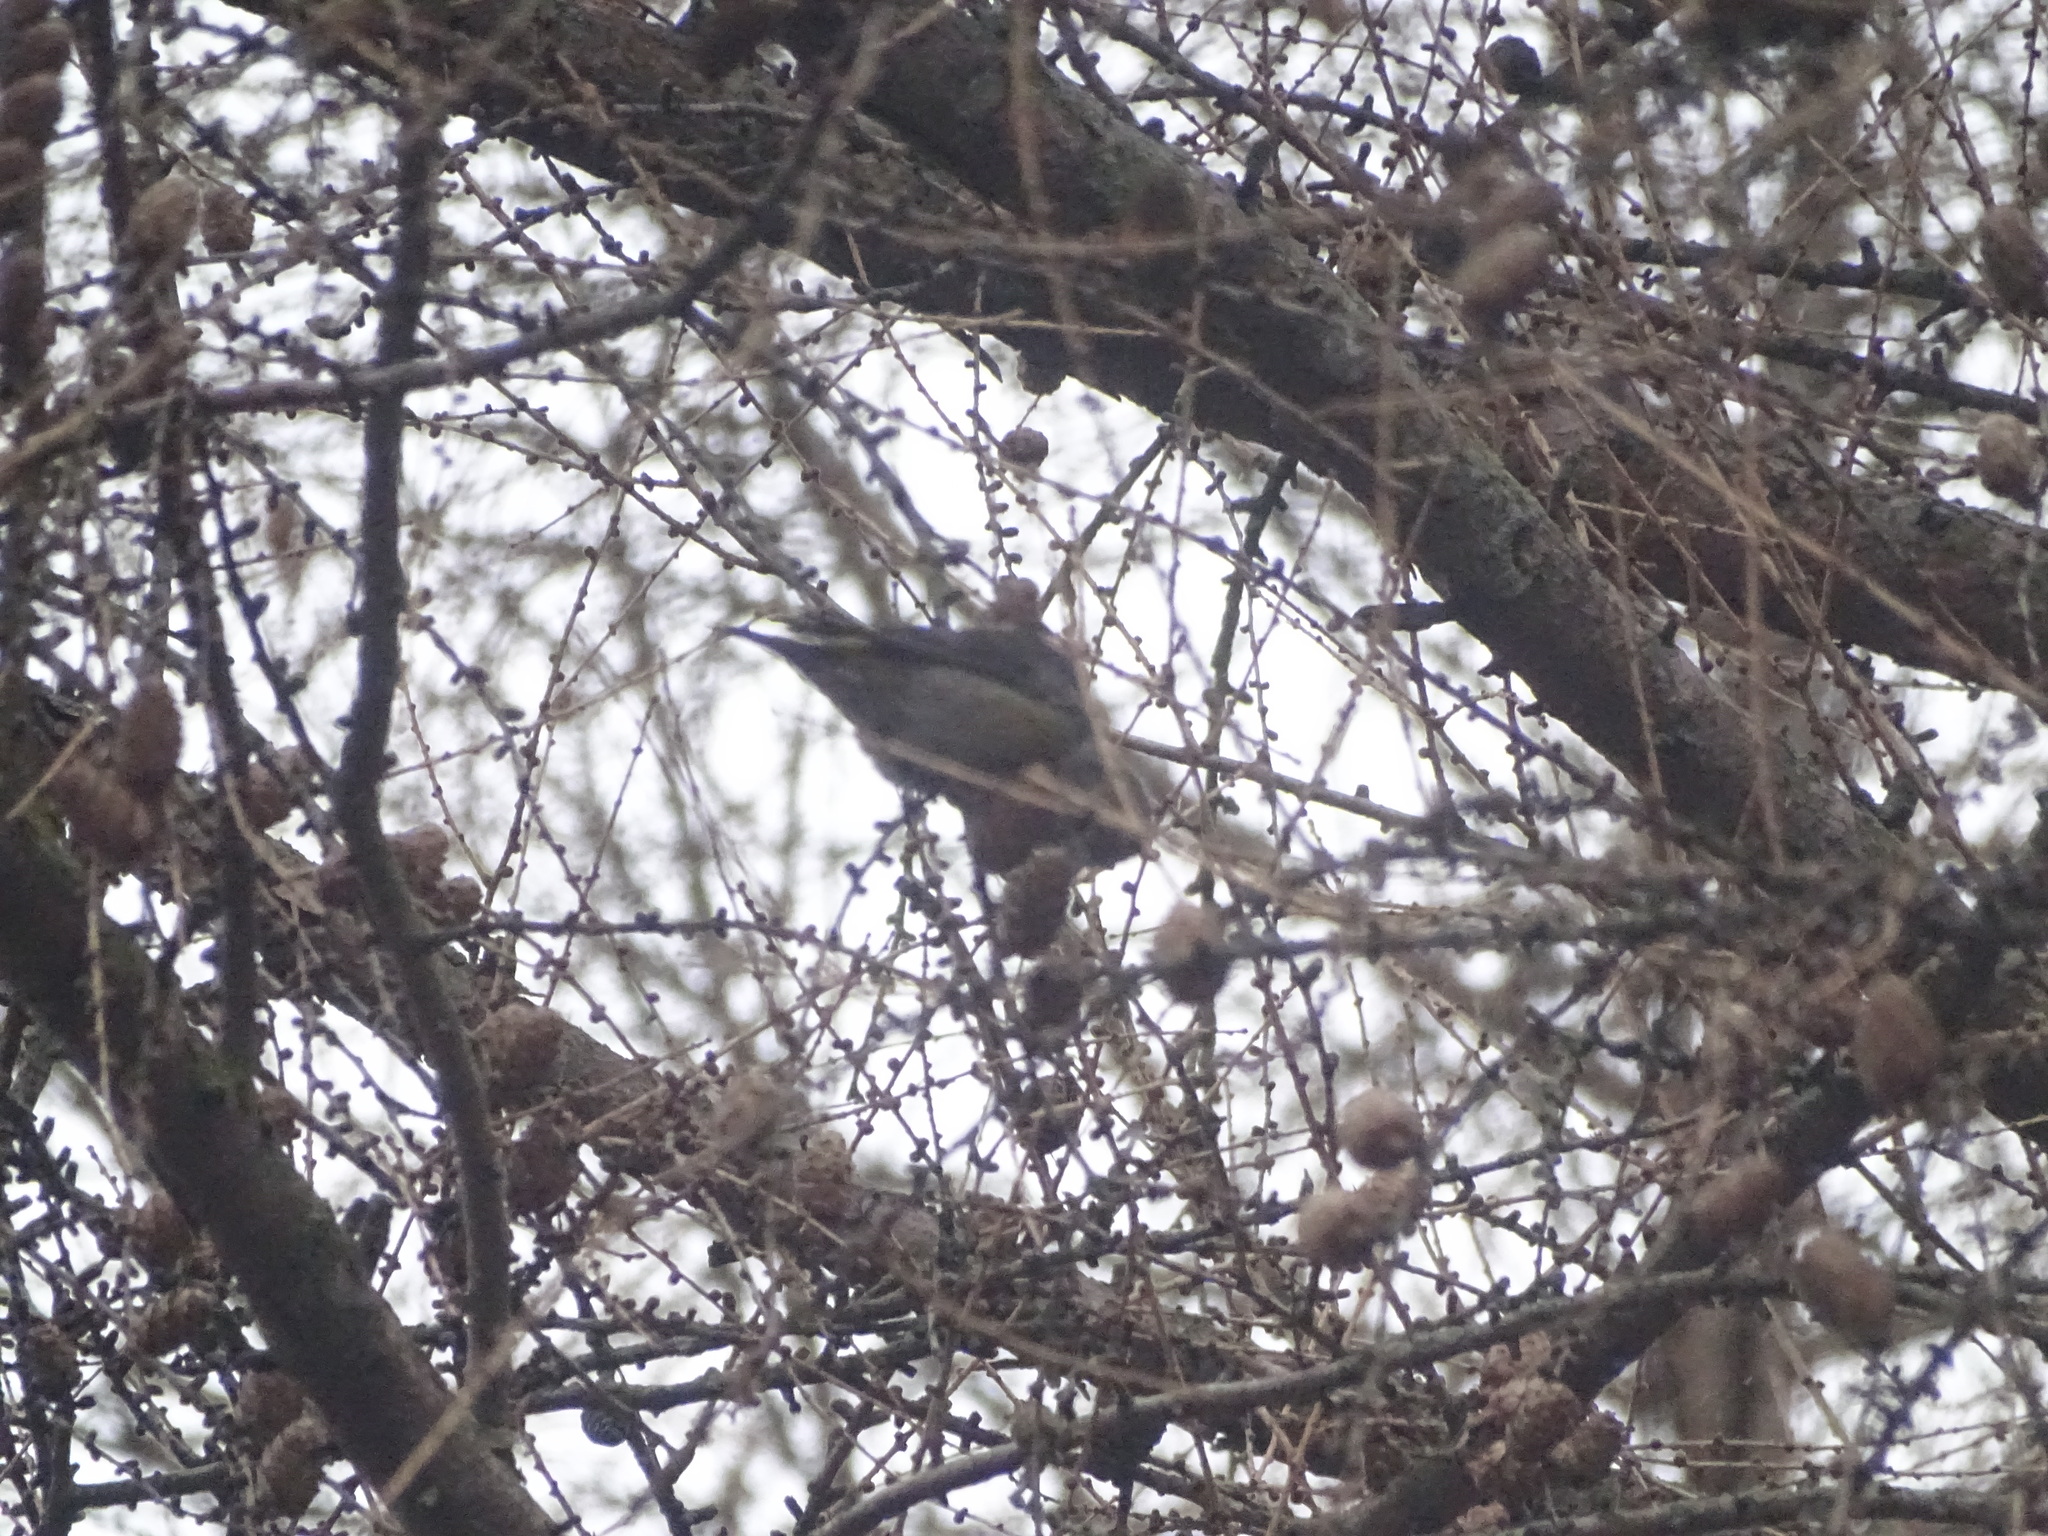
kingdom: Animalia
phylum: Chordata
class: Aves
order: Passeriformes
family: Fringillidae
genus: Loxia
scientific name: Loxia curvirostra
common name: Red crossbill
